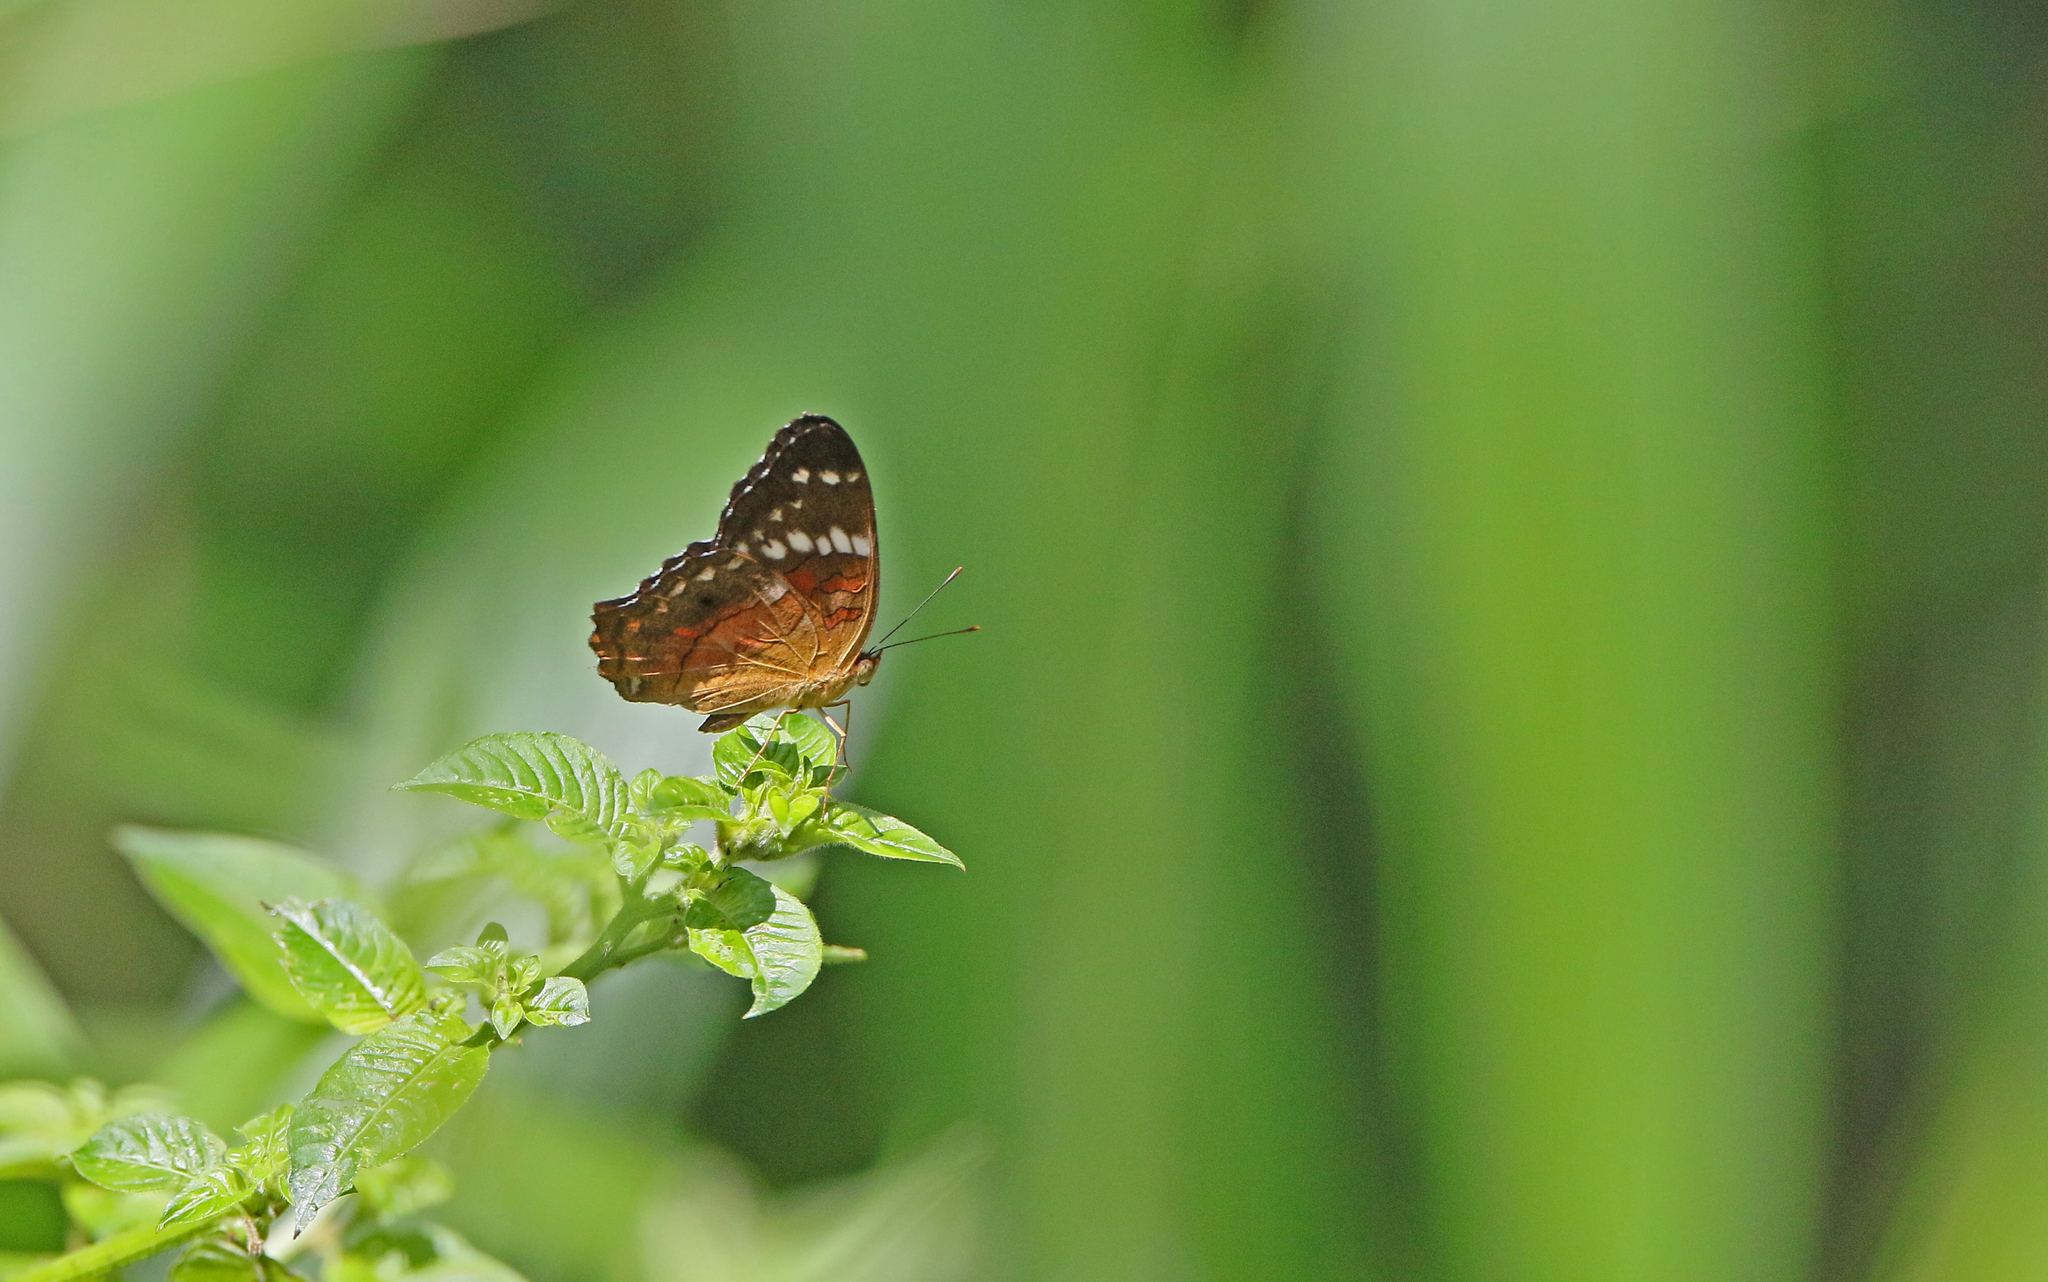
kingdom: Animalia
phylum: Arthropoda
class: Insecta
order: Lepidoptera
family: Nymphalidae
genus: Anartia
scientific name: Anartia amathea
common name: Red peacock
